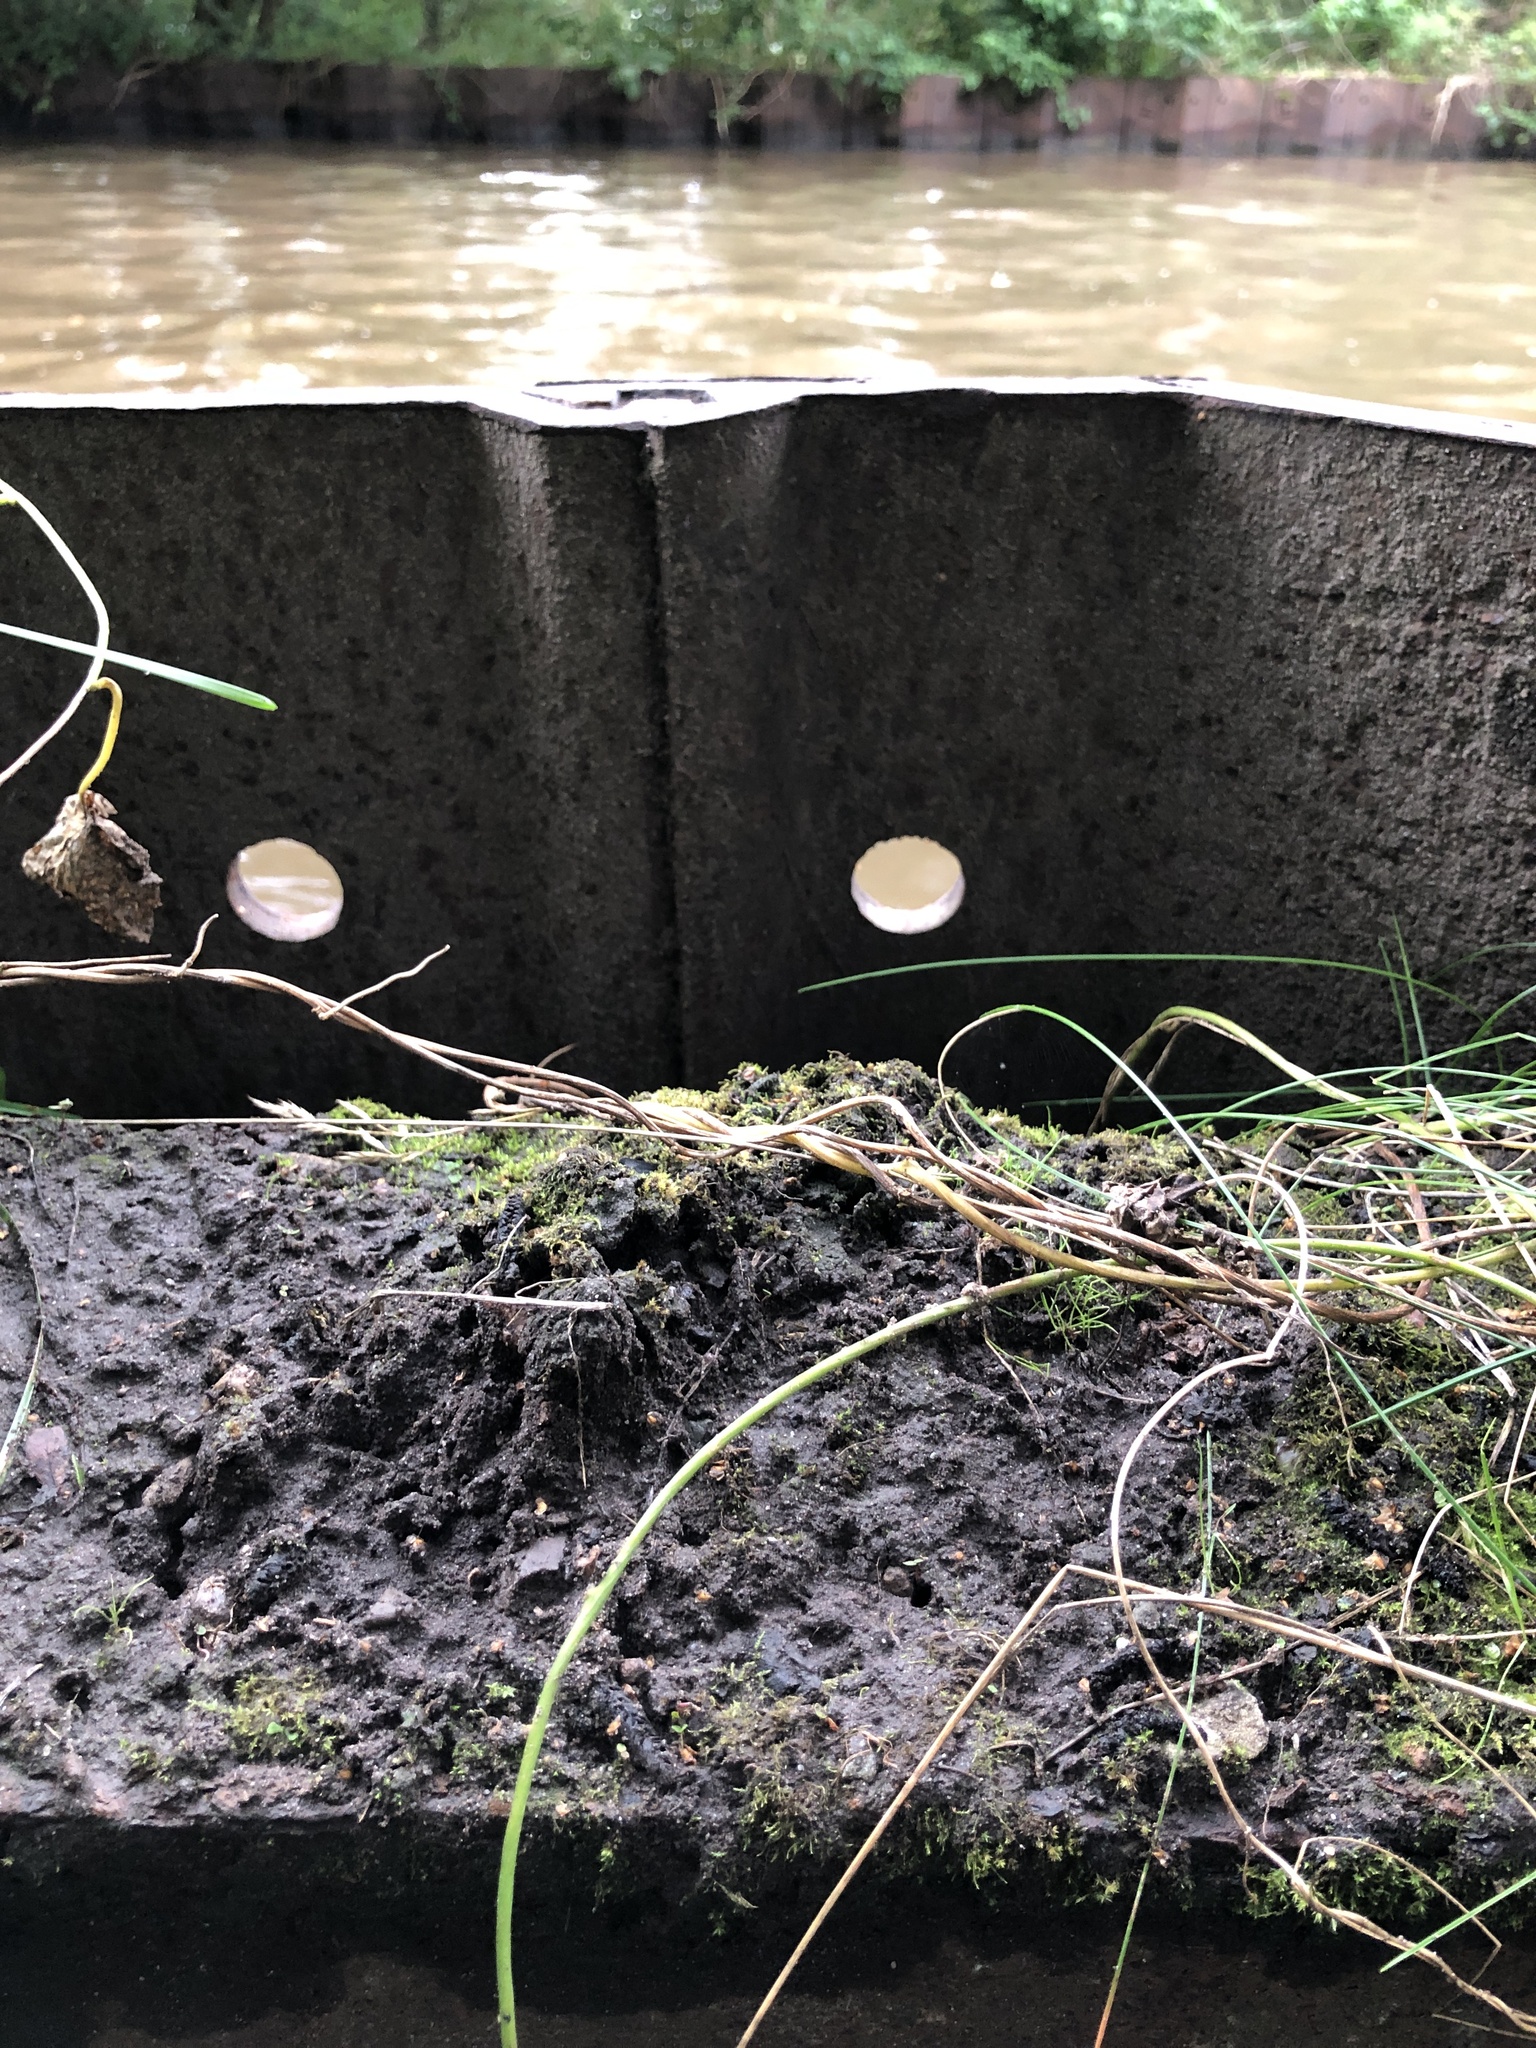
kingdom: Plantae
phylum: Marchantiophyta
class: Marchantiopsida
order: Marchantiales
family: Ricciaceae
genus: Riccia
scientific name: Riccia glauca
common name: Glaucous crystalwort
